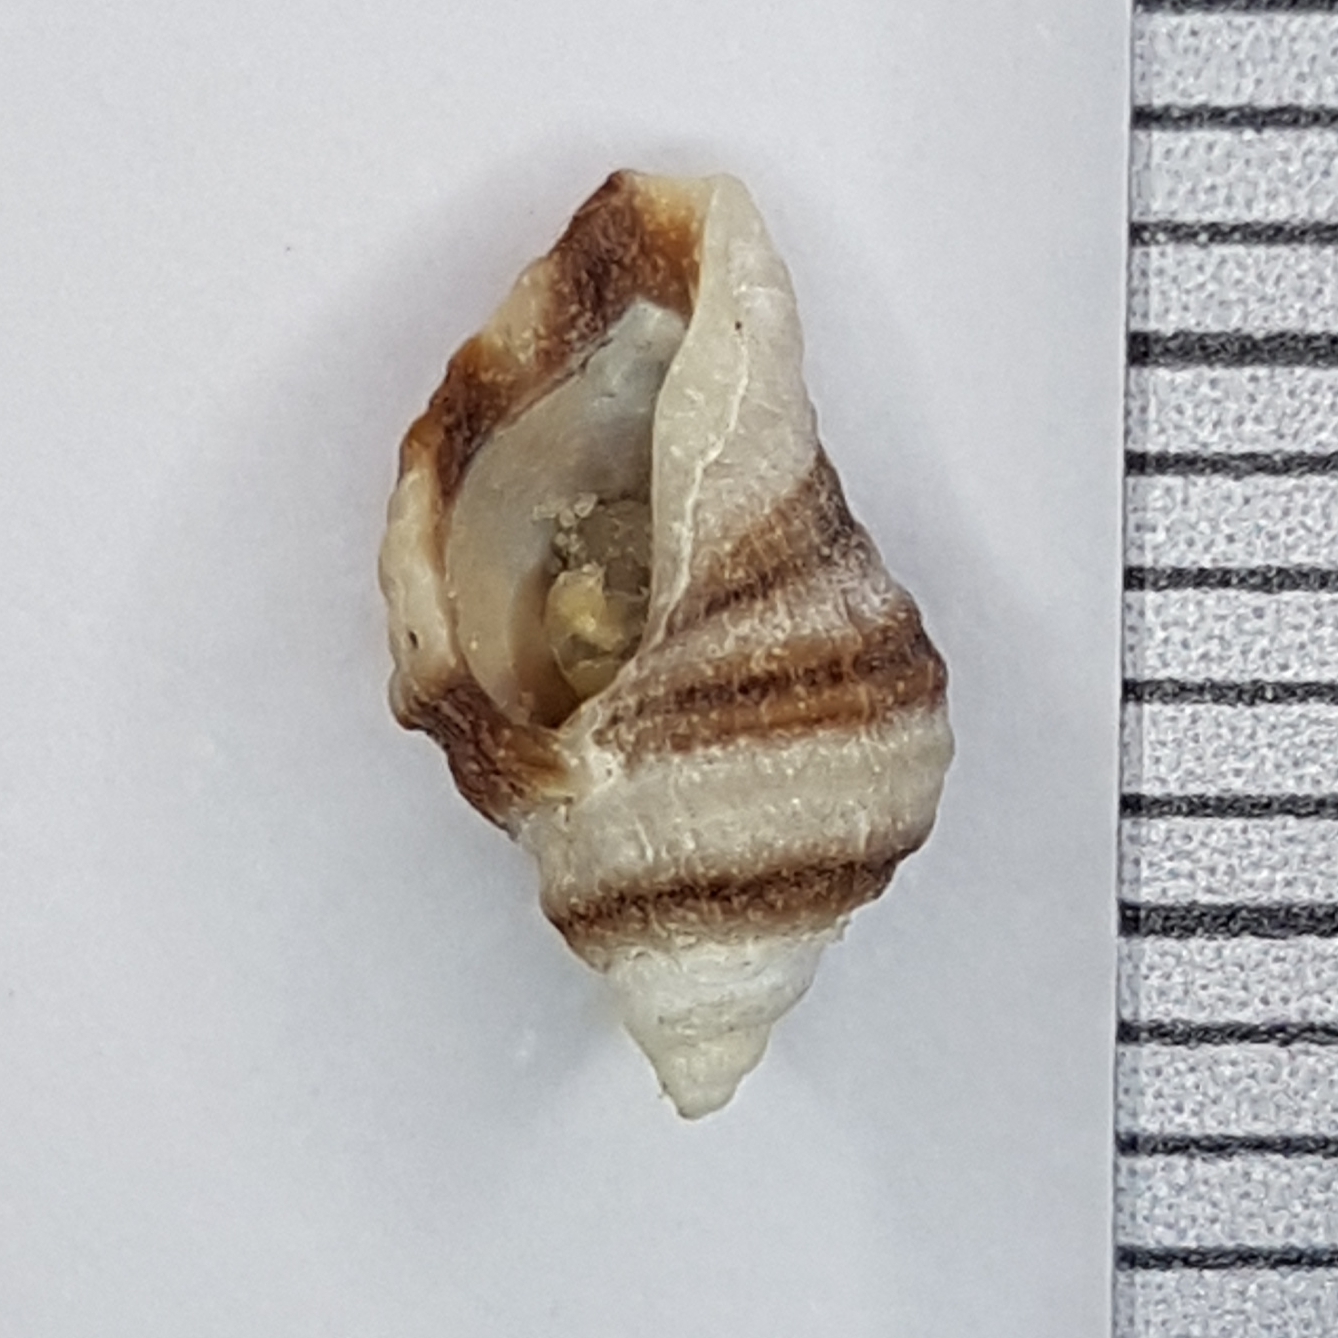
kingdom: Animalia
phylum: Mollusca
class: Gastropoda
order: Neogastropoda
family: Muricidae
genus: Nucella
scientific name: Nucella lapillus
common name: Dog whelk
